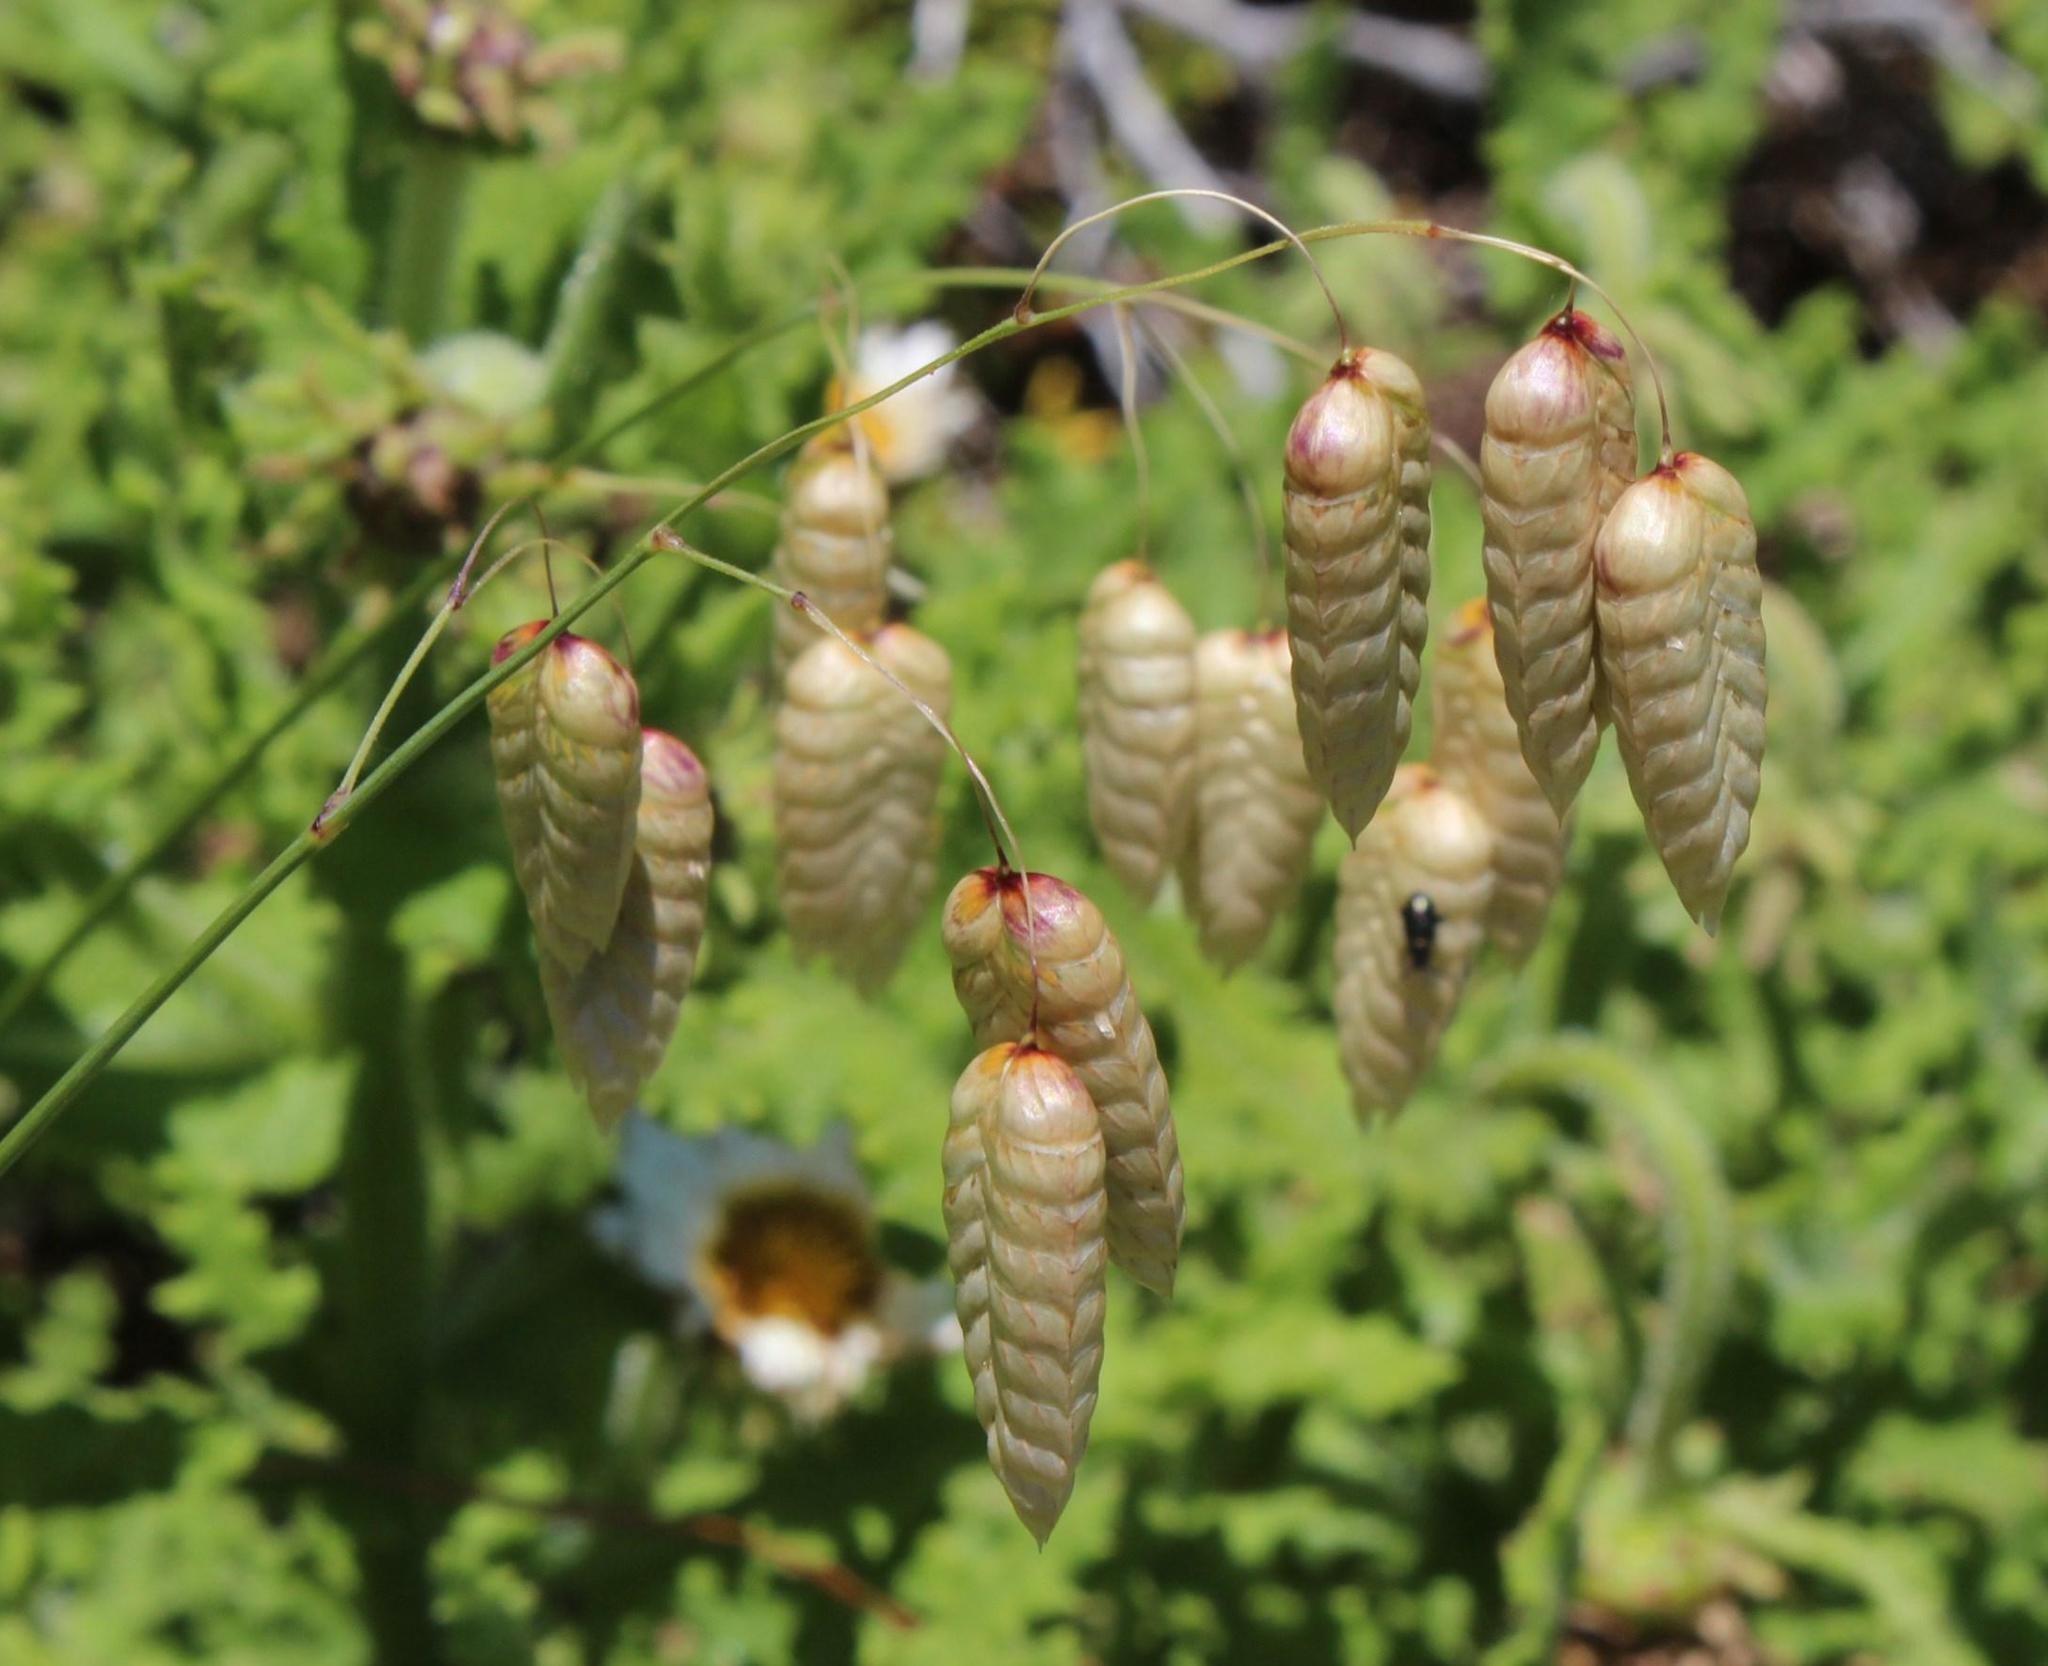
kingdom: Plantae
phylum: Tracheophyta
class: Liliopsida
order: Poales
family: Poaceae
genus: Briza
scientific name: Briza maxima
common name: Big quakinggrass
